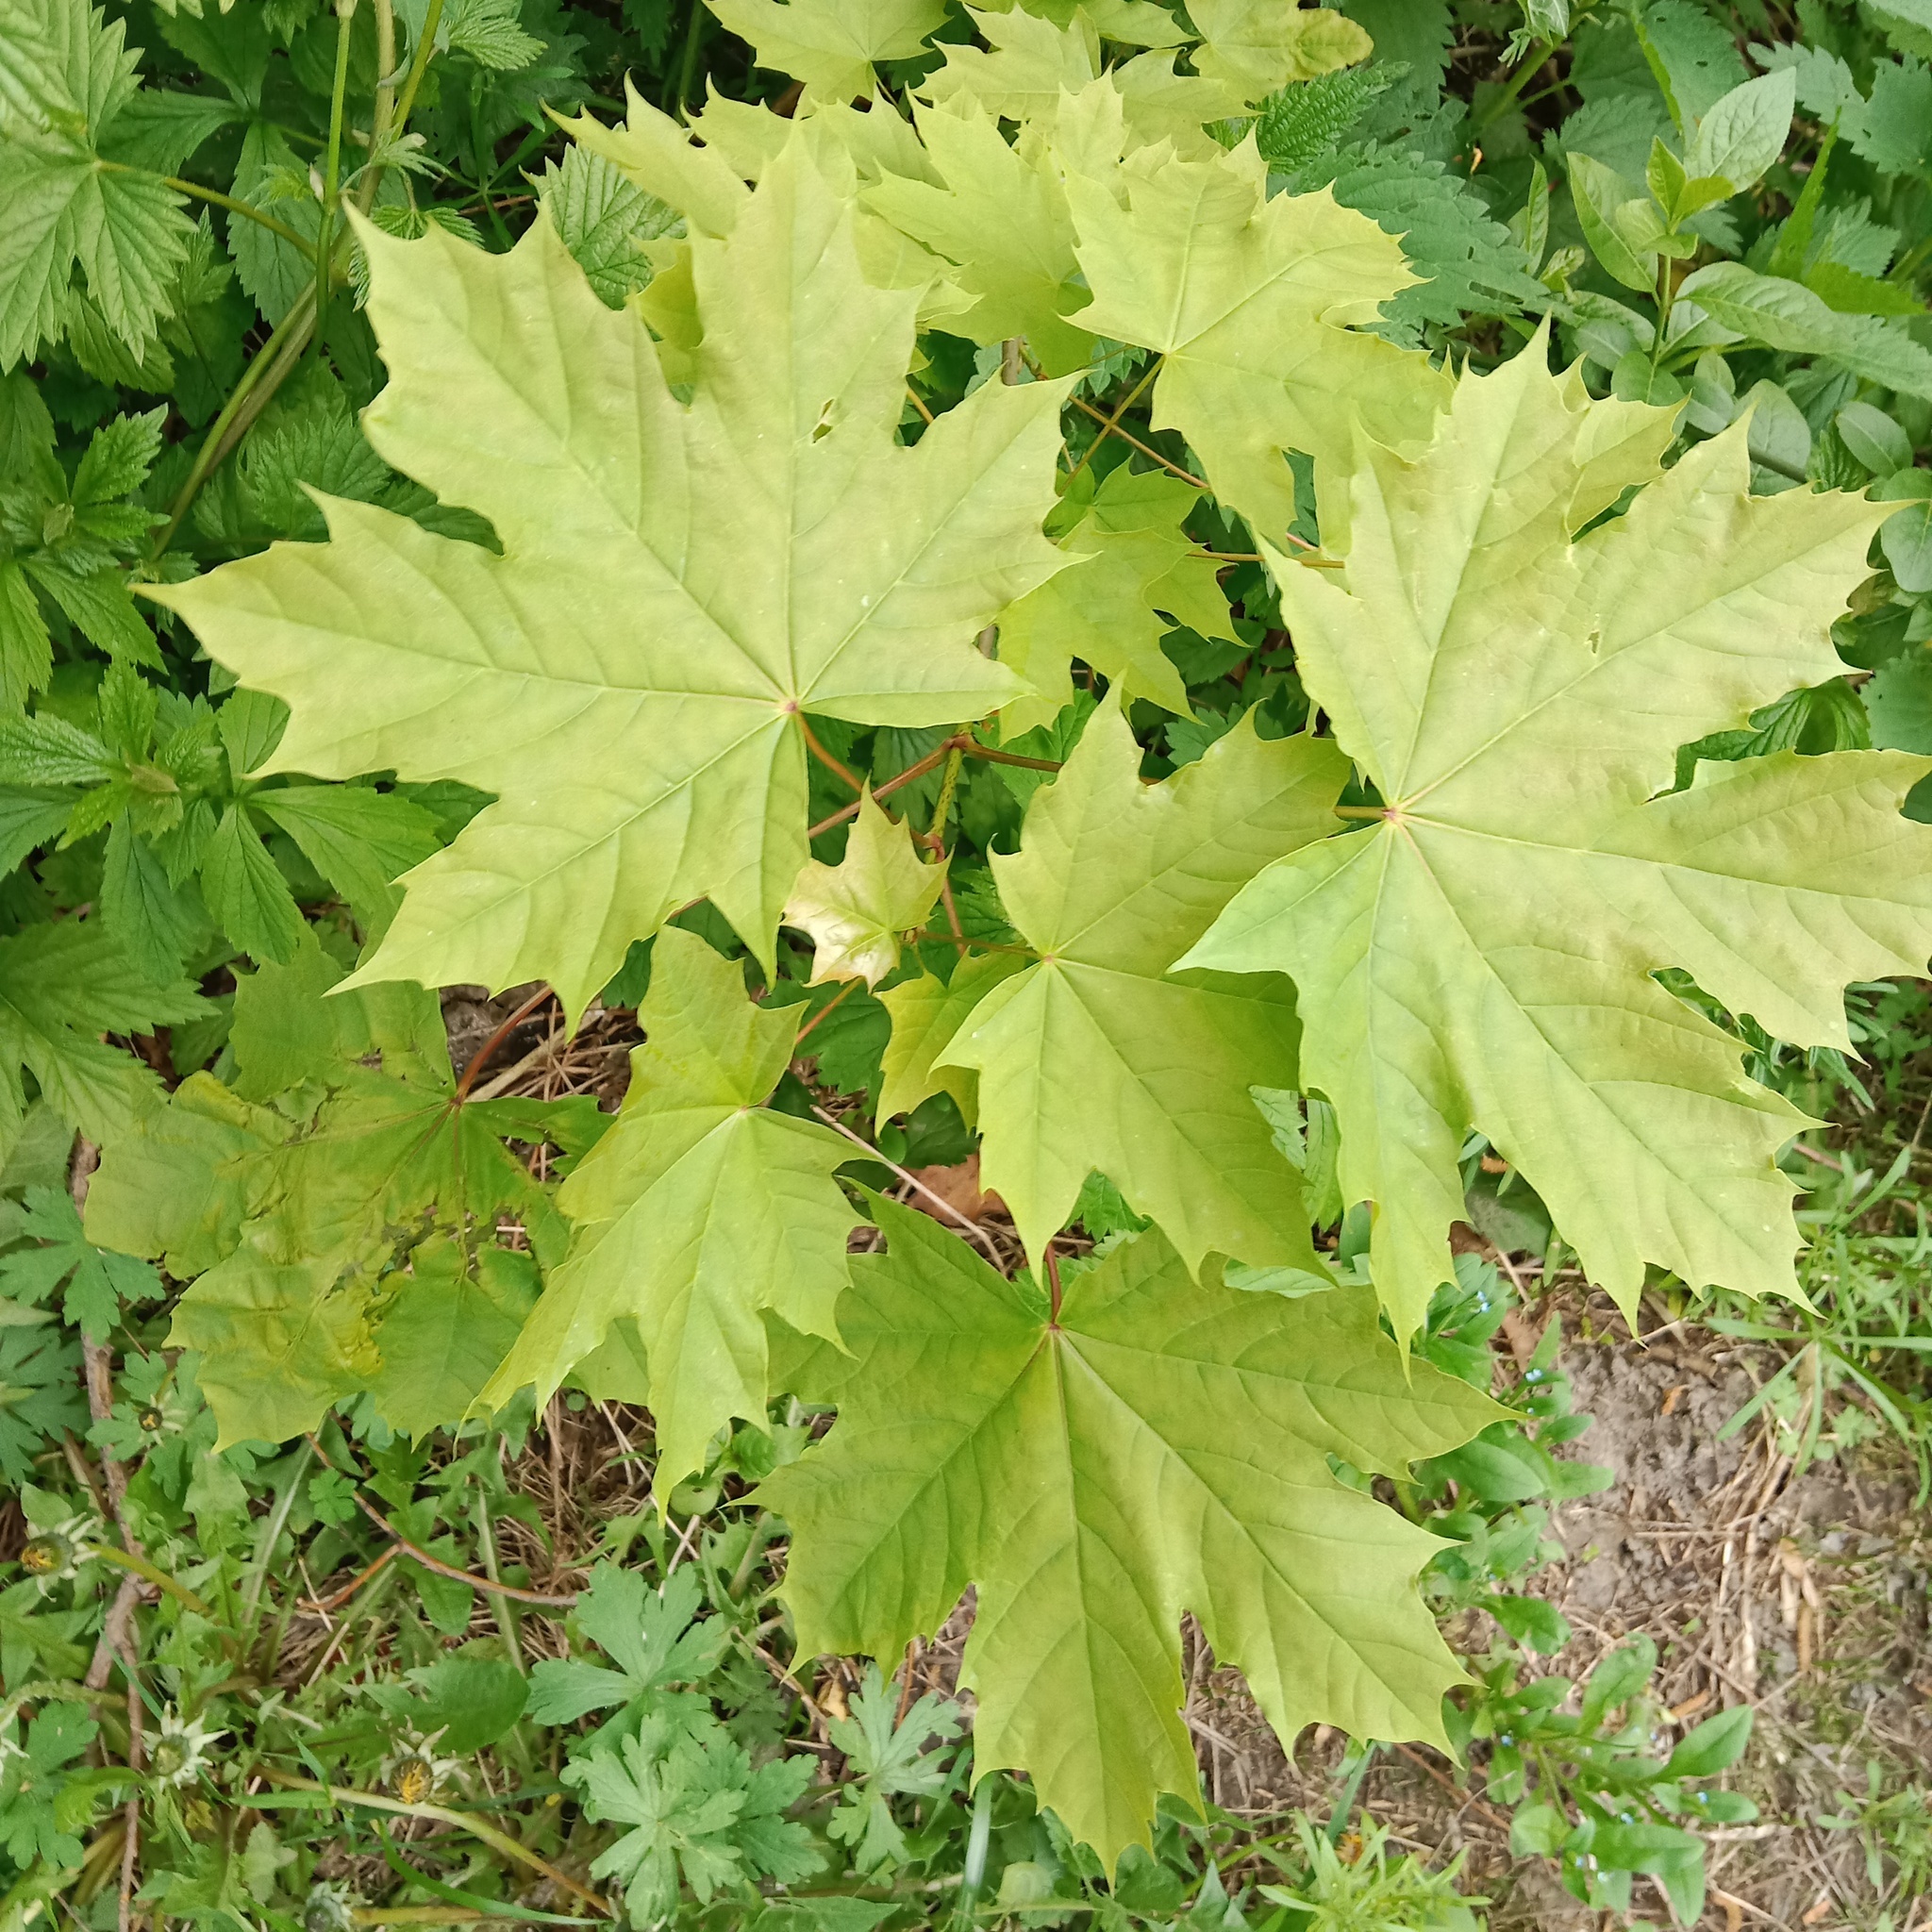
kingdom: Plantae
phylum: Tracheophyta
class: Magnoliopsida
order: Sapindales
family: Sapindaceae
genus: Acer
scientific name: Acer platanoides
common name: Norway maple
